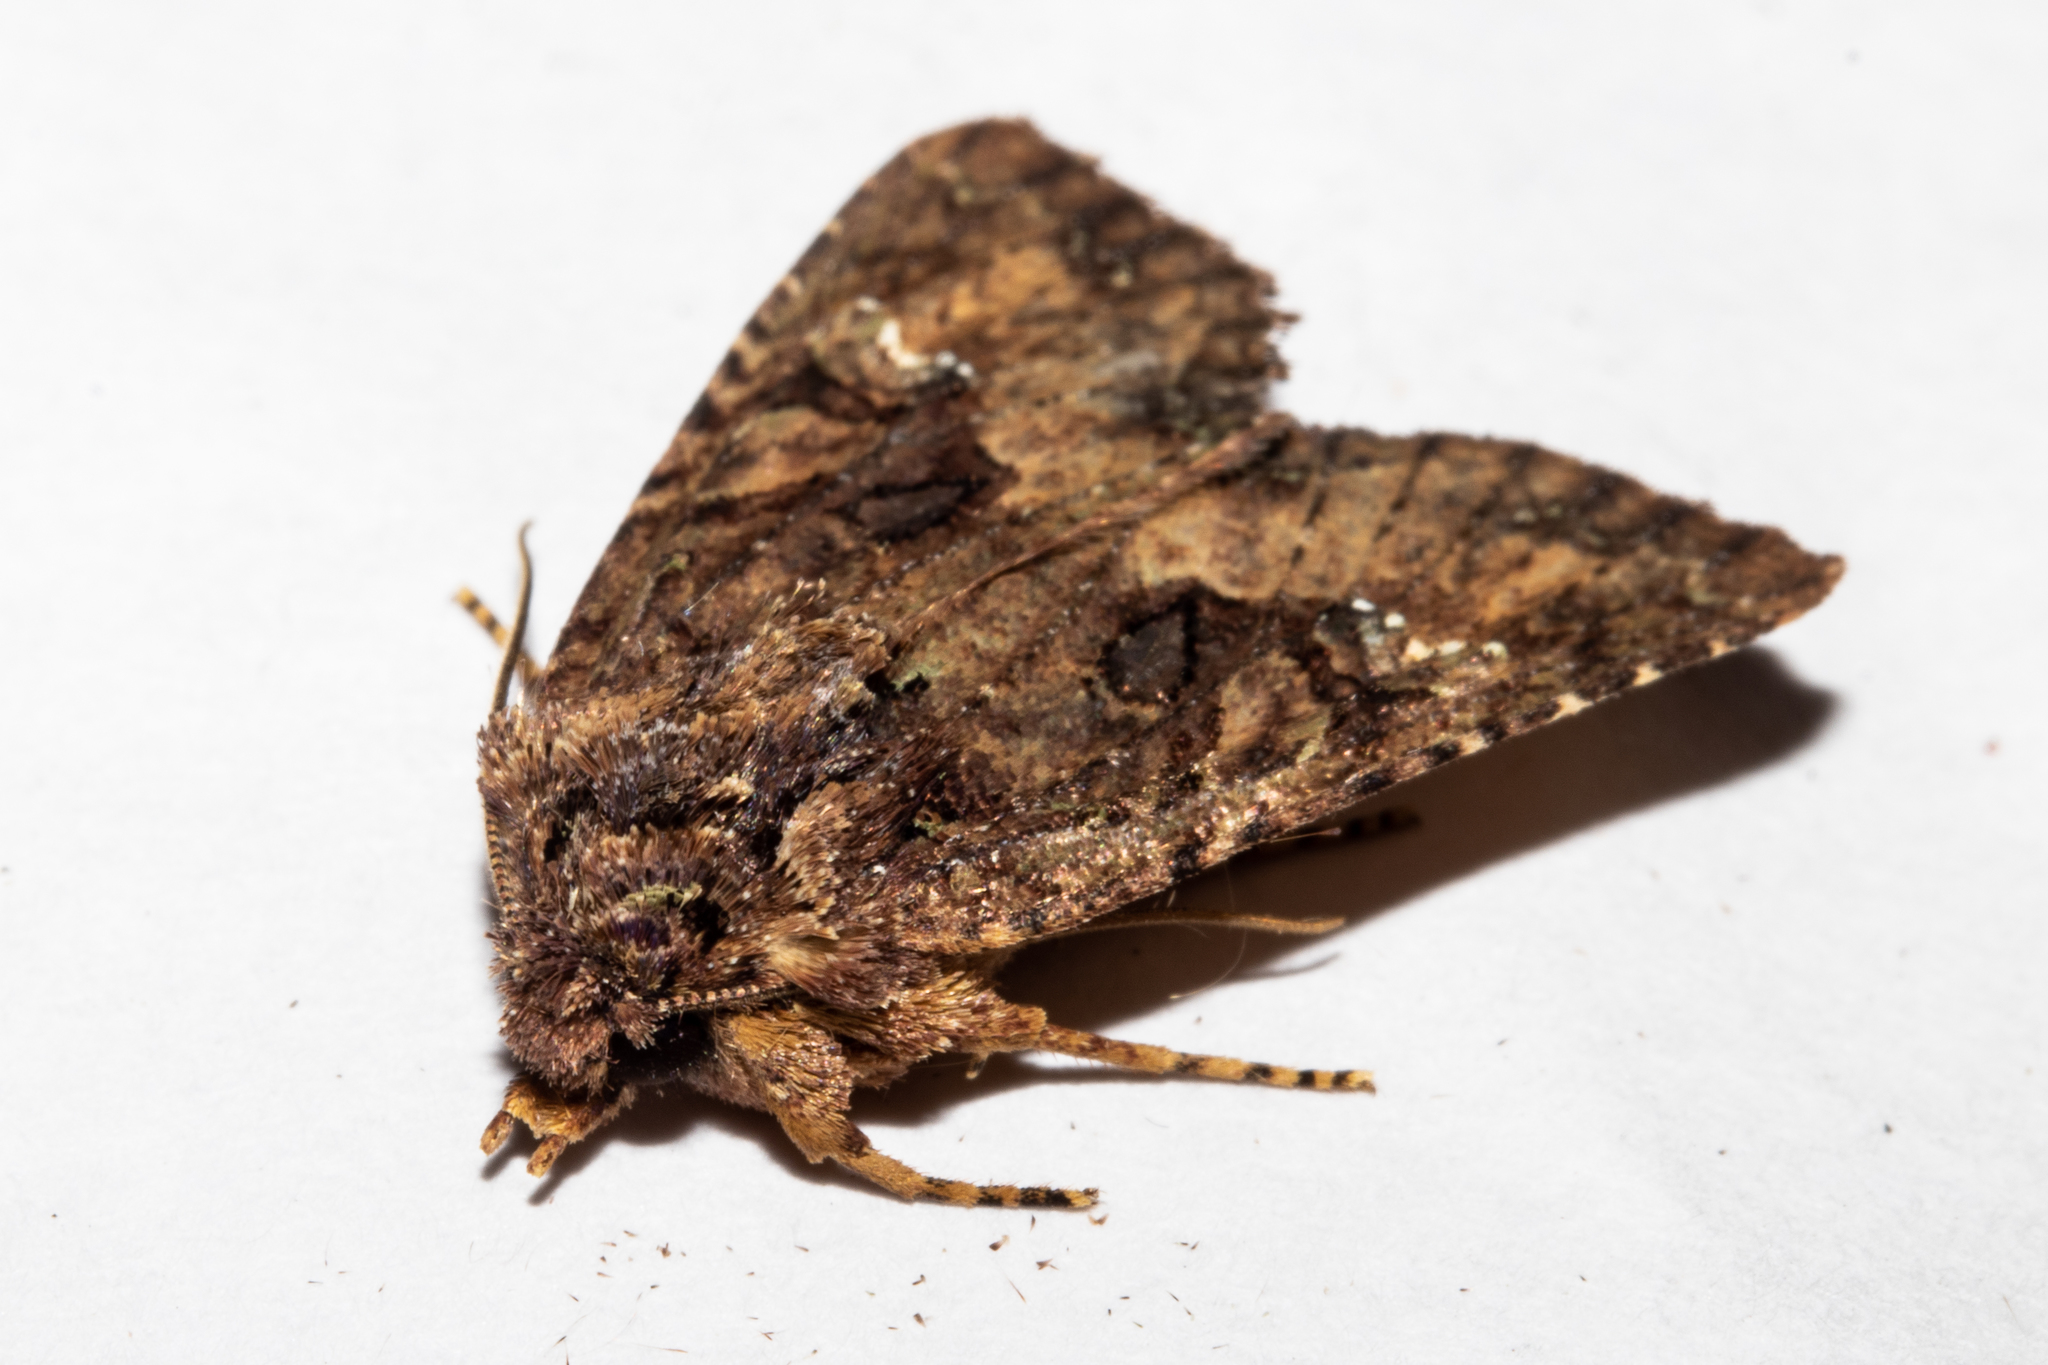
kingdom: Animalia
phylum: Arthropoda
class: Insecta
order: Lepidoptera
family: Noctuidae
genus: Meterana
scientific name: Meterana ochthistis
